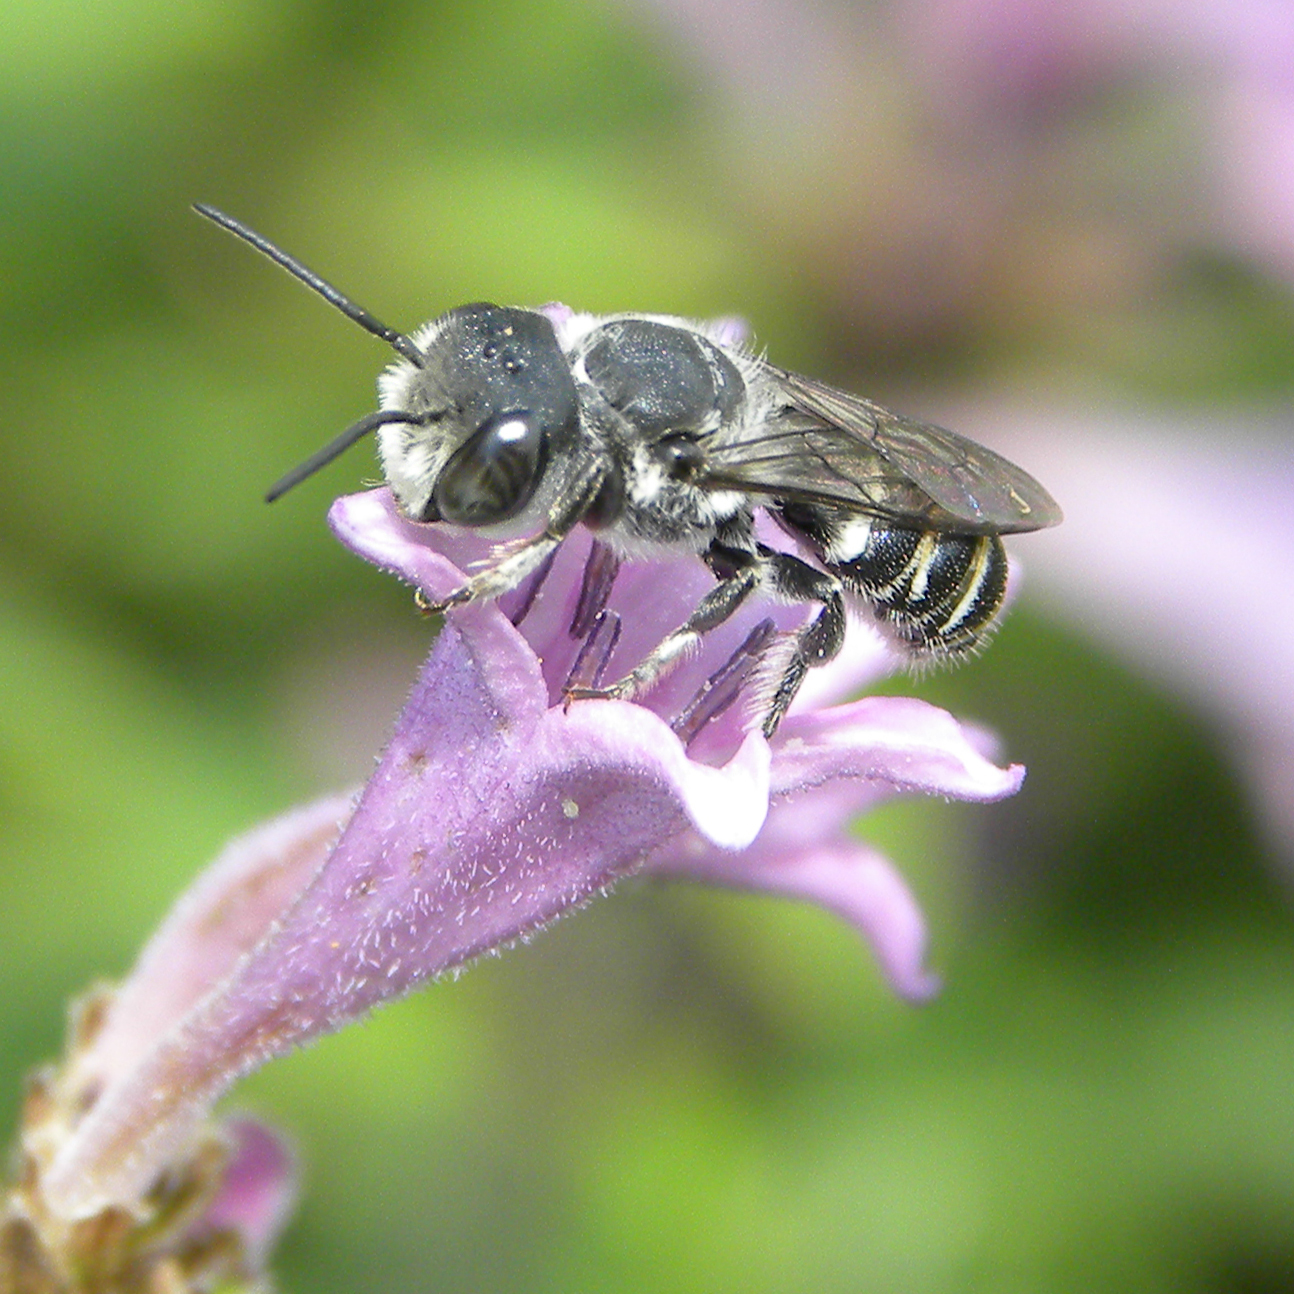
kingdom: Animalia
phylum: Arthropoda
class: Insecta
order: Hymenoptera
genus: Chelostomoides
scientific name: Chelostomoides
